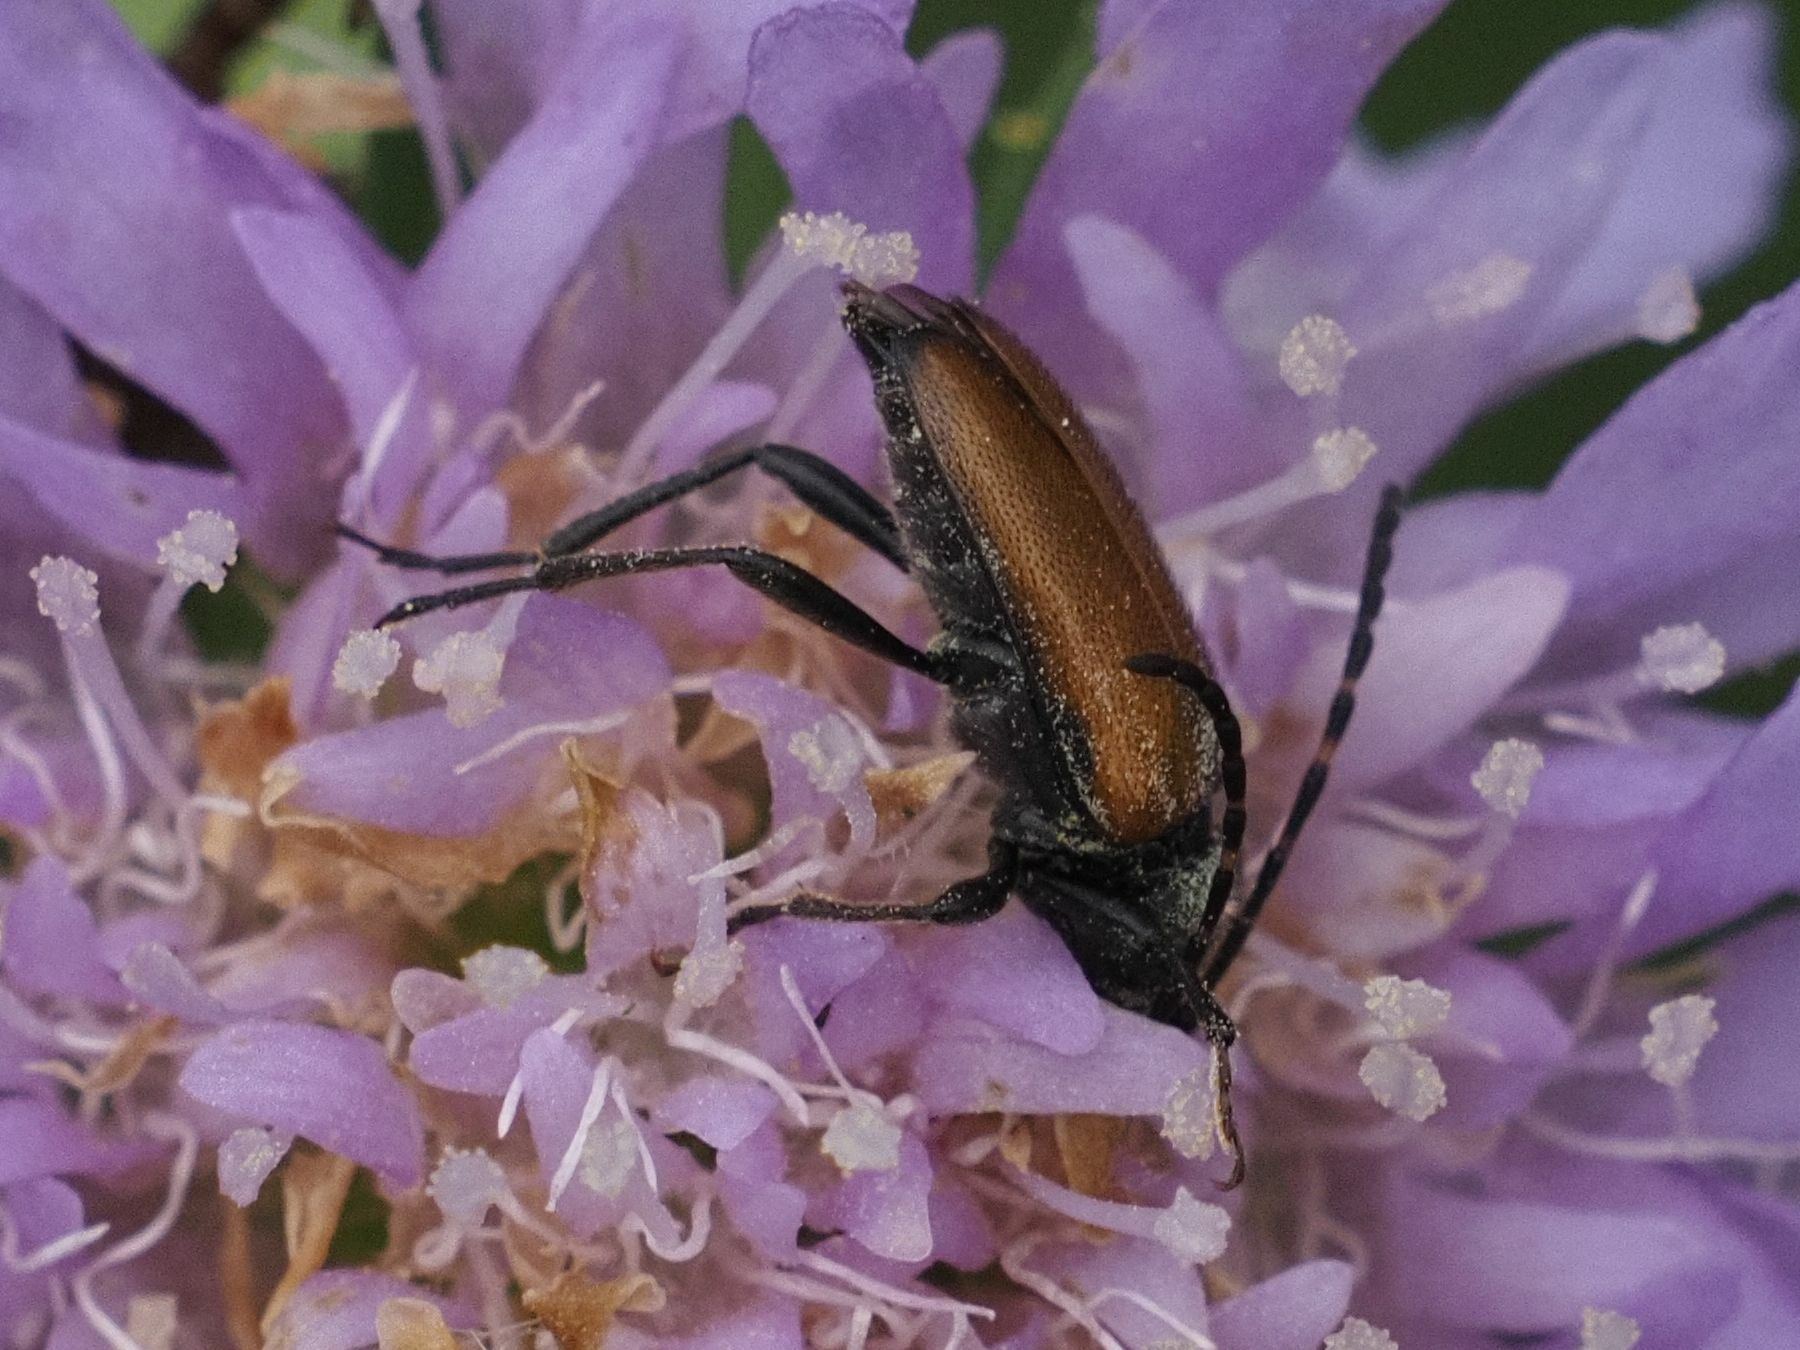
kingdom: Animalia
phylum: Arthropoda
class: Insecta
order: Coleoptera
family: Cerambycidae
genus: Paracorymbia
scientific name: Paracorymbia maculicornis
